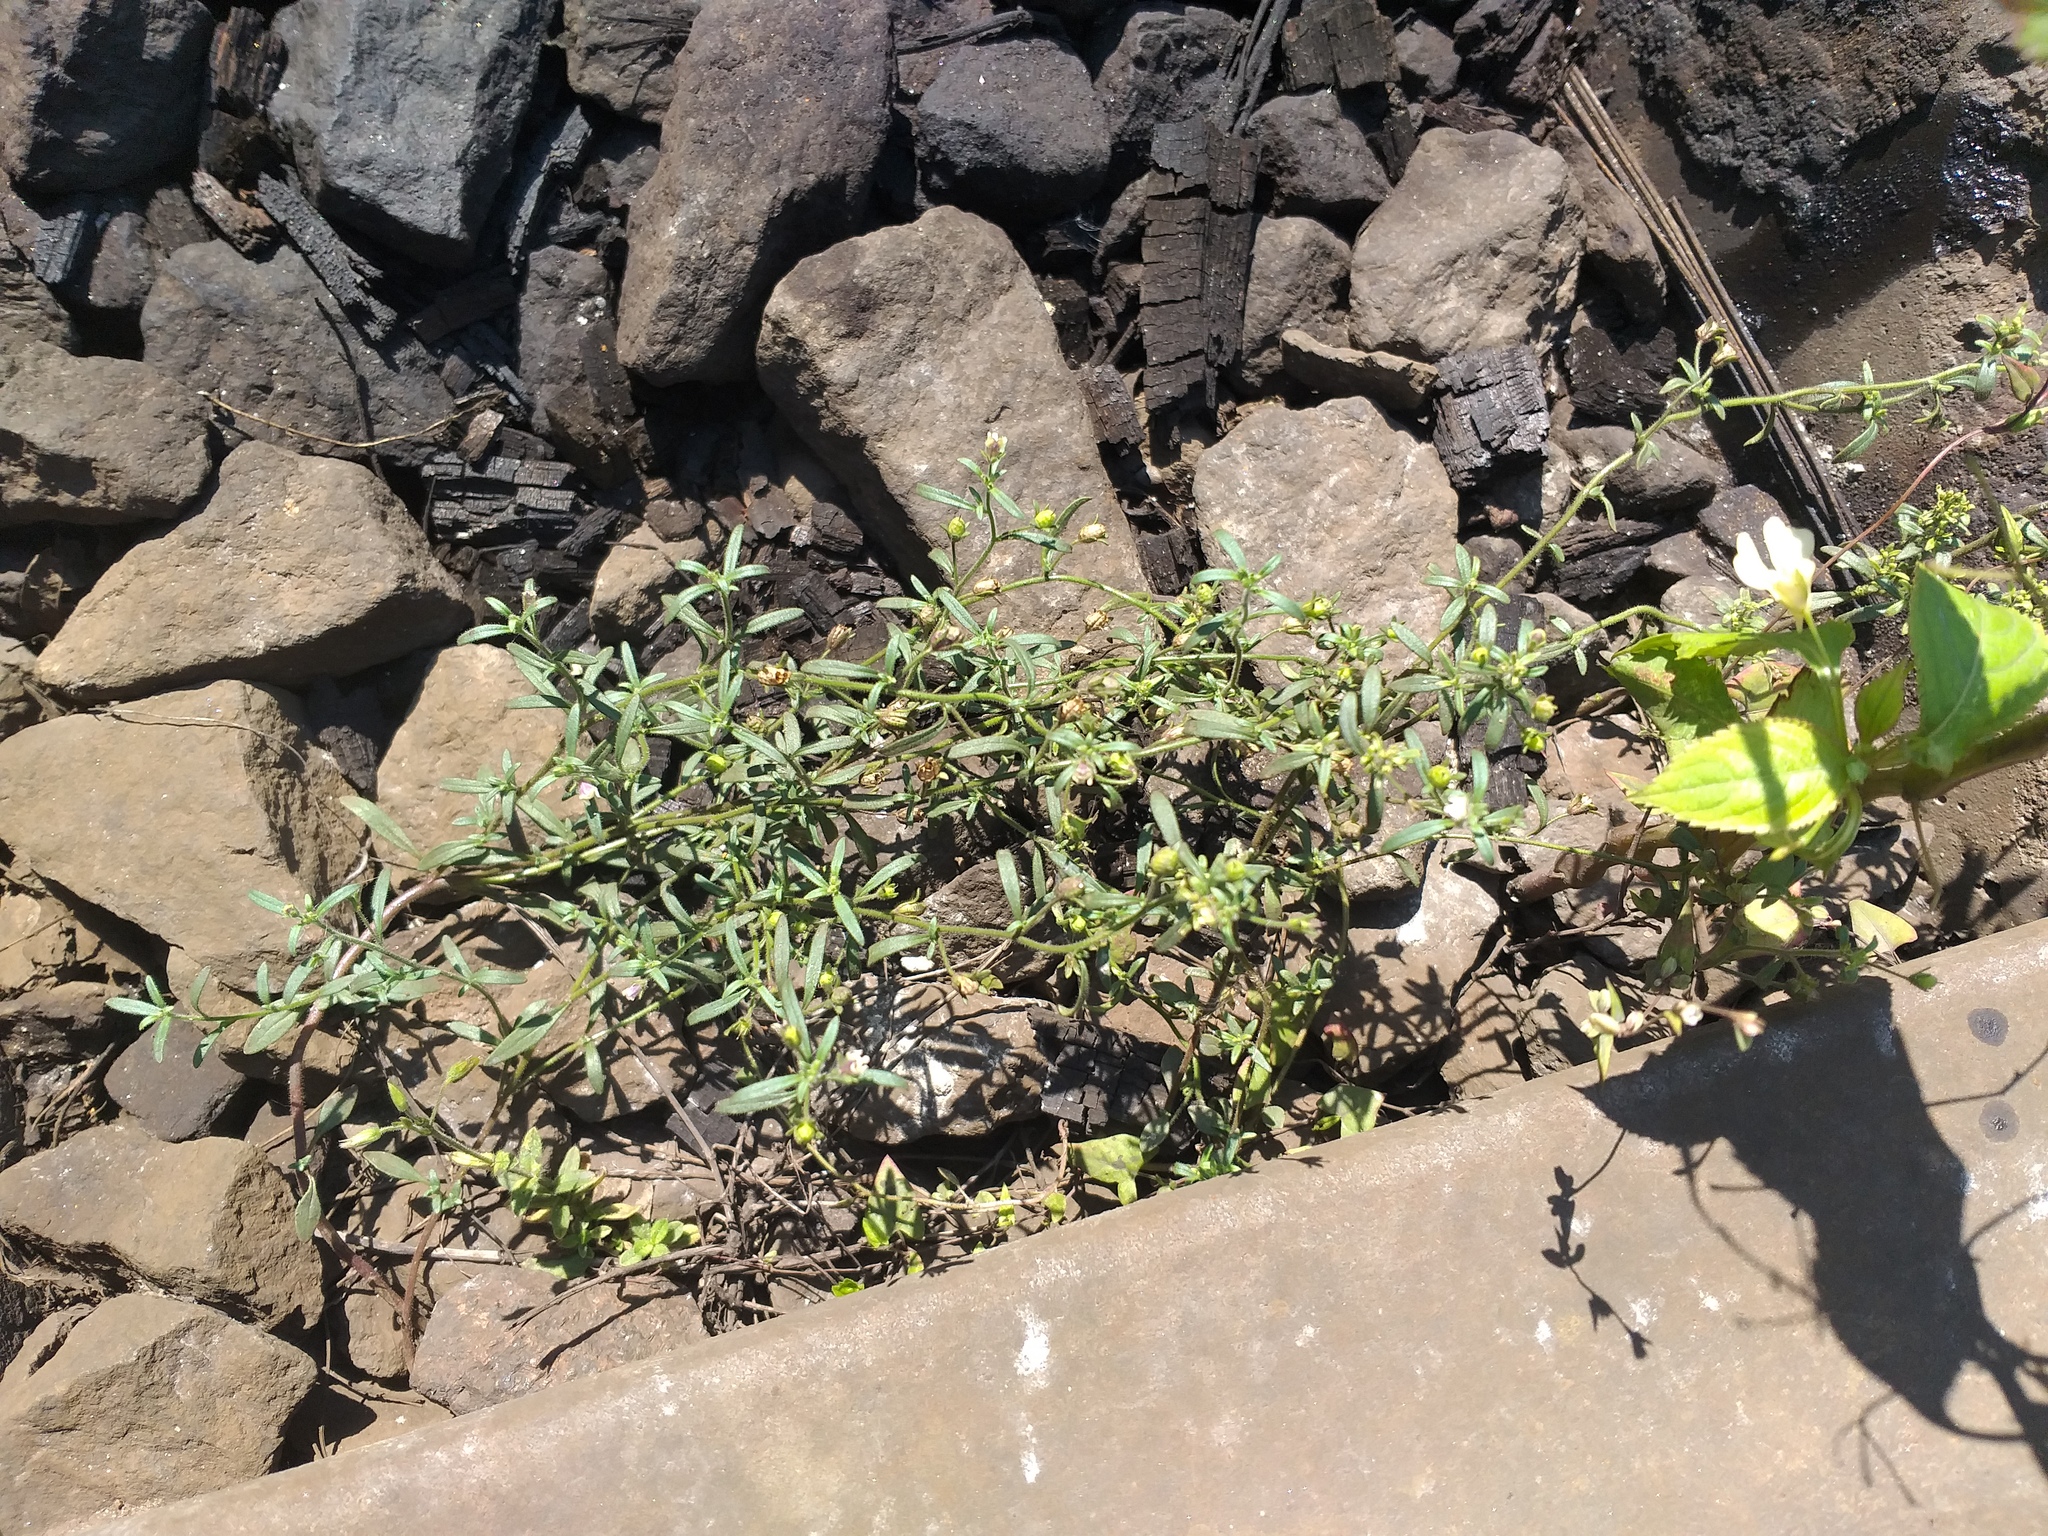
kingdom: Plantae
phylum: Tracheophyta
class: Magnoliopsida
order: Lamiales
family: Plantaginaceae
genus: Chaenorhinum
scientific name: Chaenorhinum minus
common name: Dwarf snapdragon
